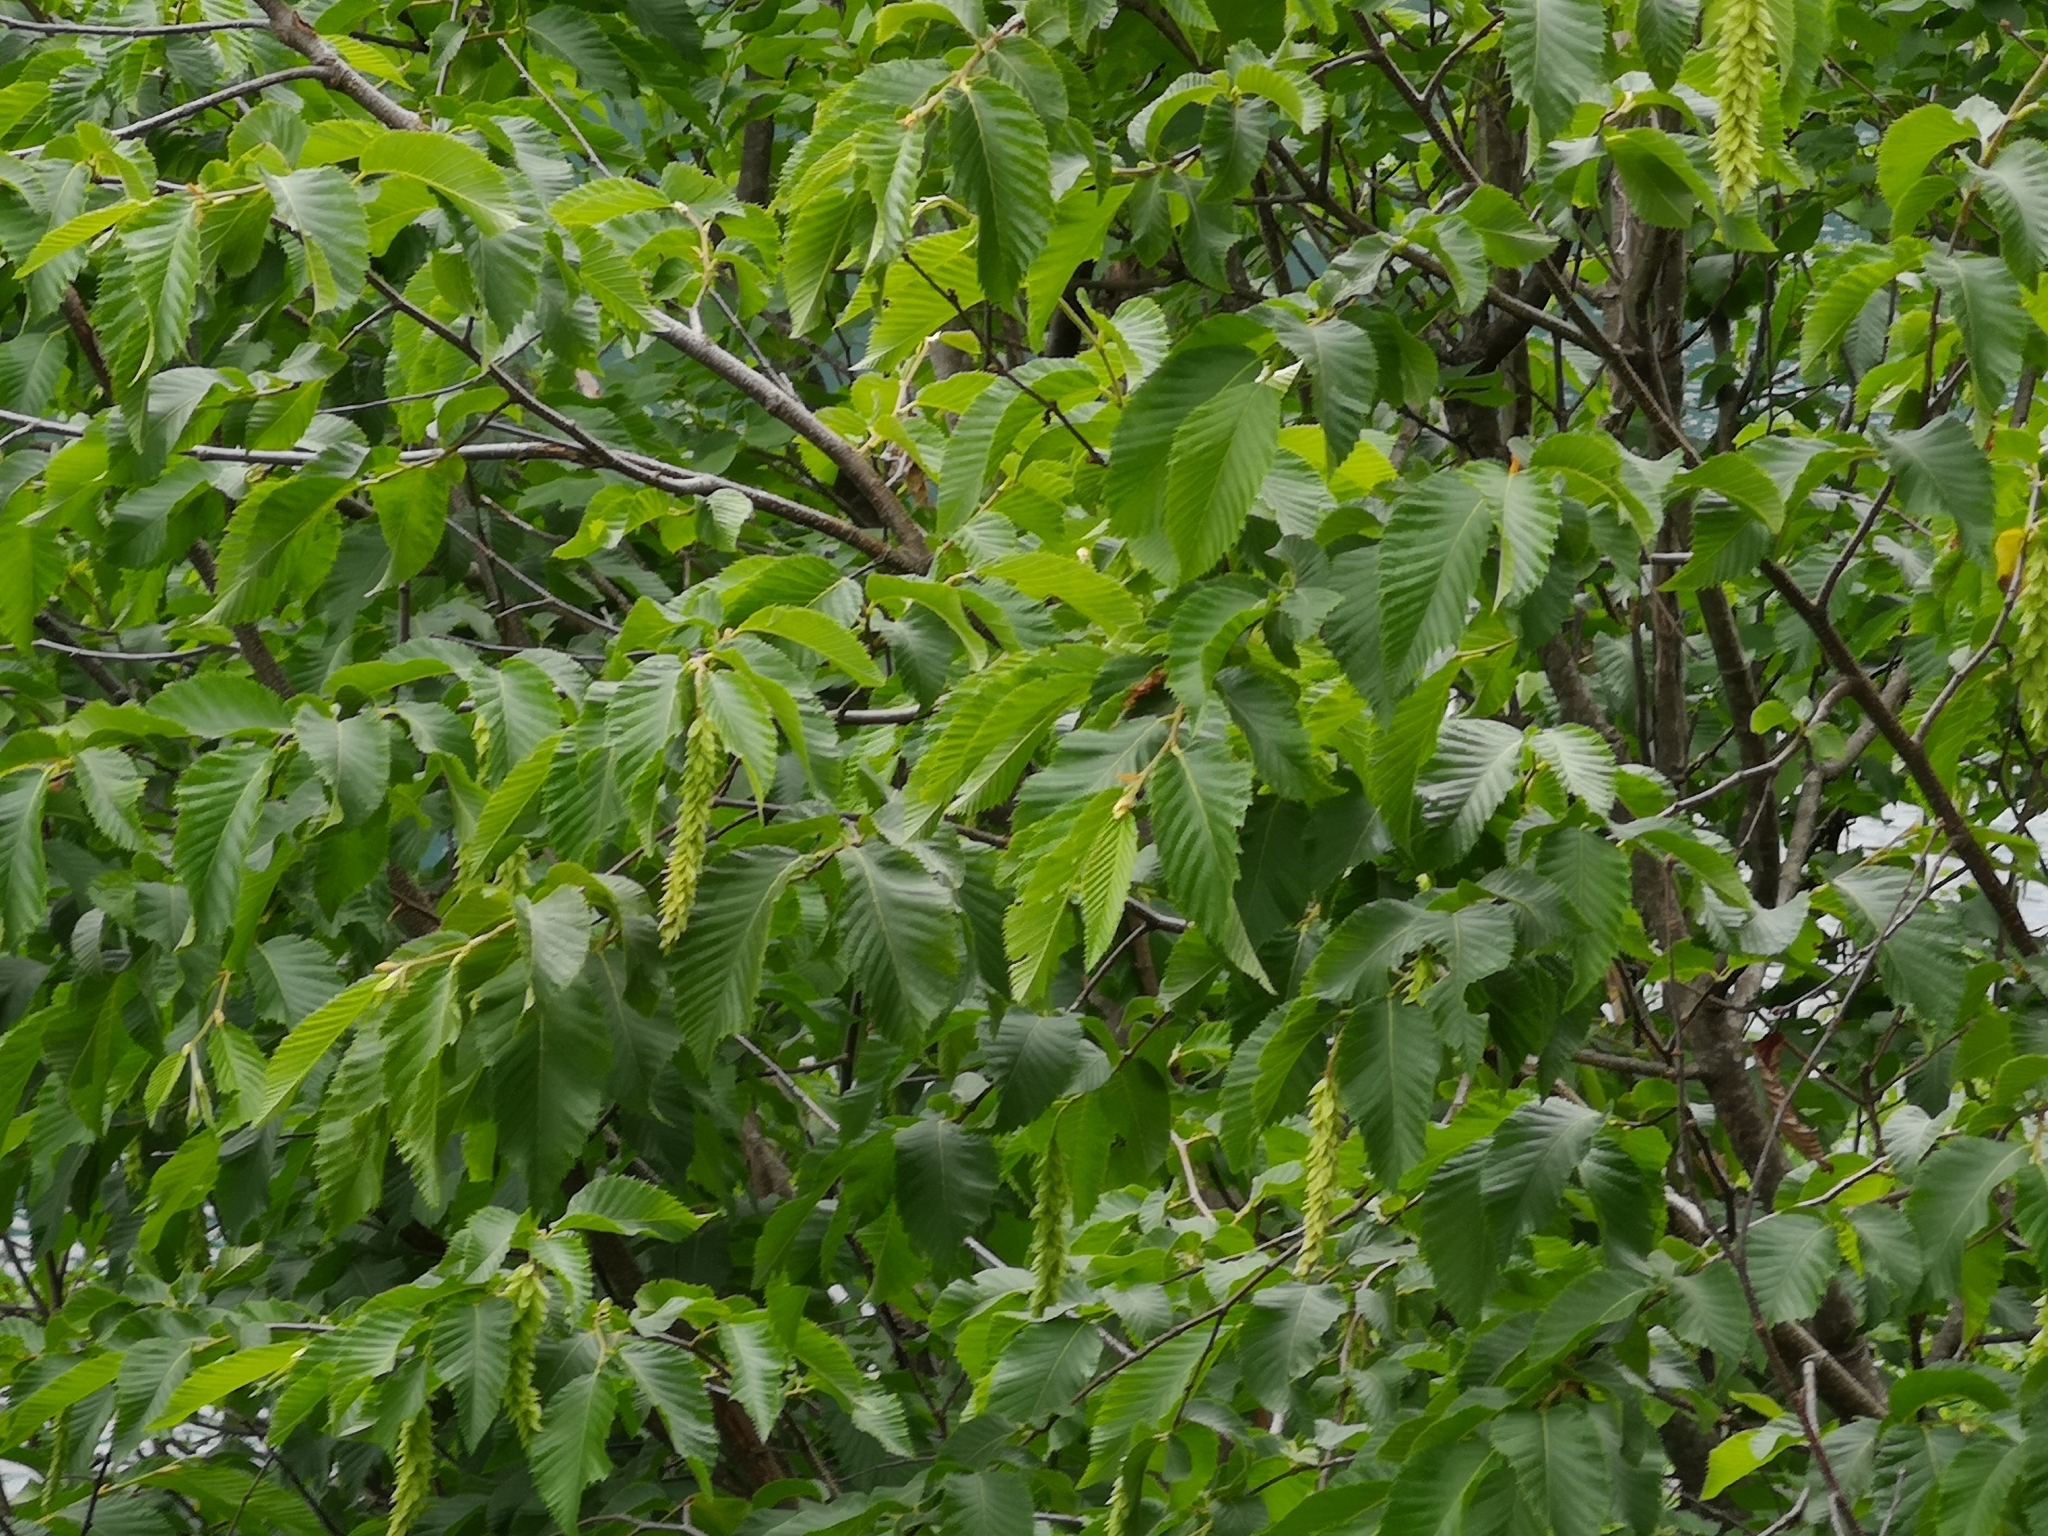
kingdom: Plantae
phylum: Tracheophyta
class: Magnoliopsida
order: Fagales
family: Betulaceae
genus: Ostrya
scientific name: Ostrya carpinifolia
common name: European hop-hornbeam
